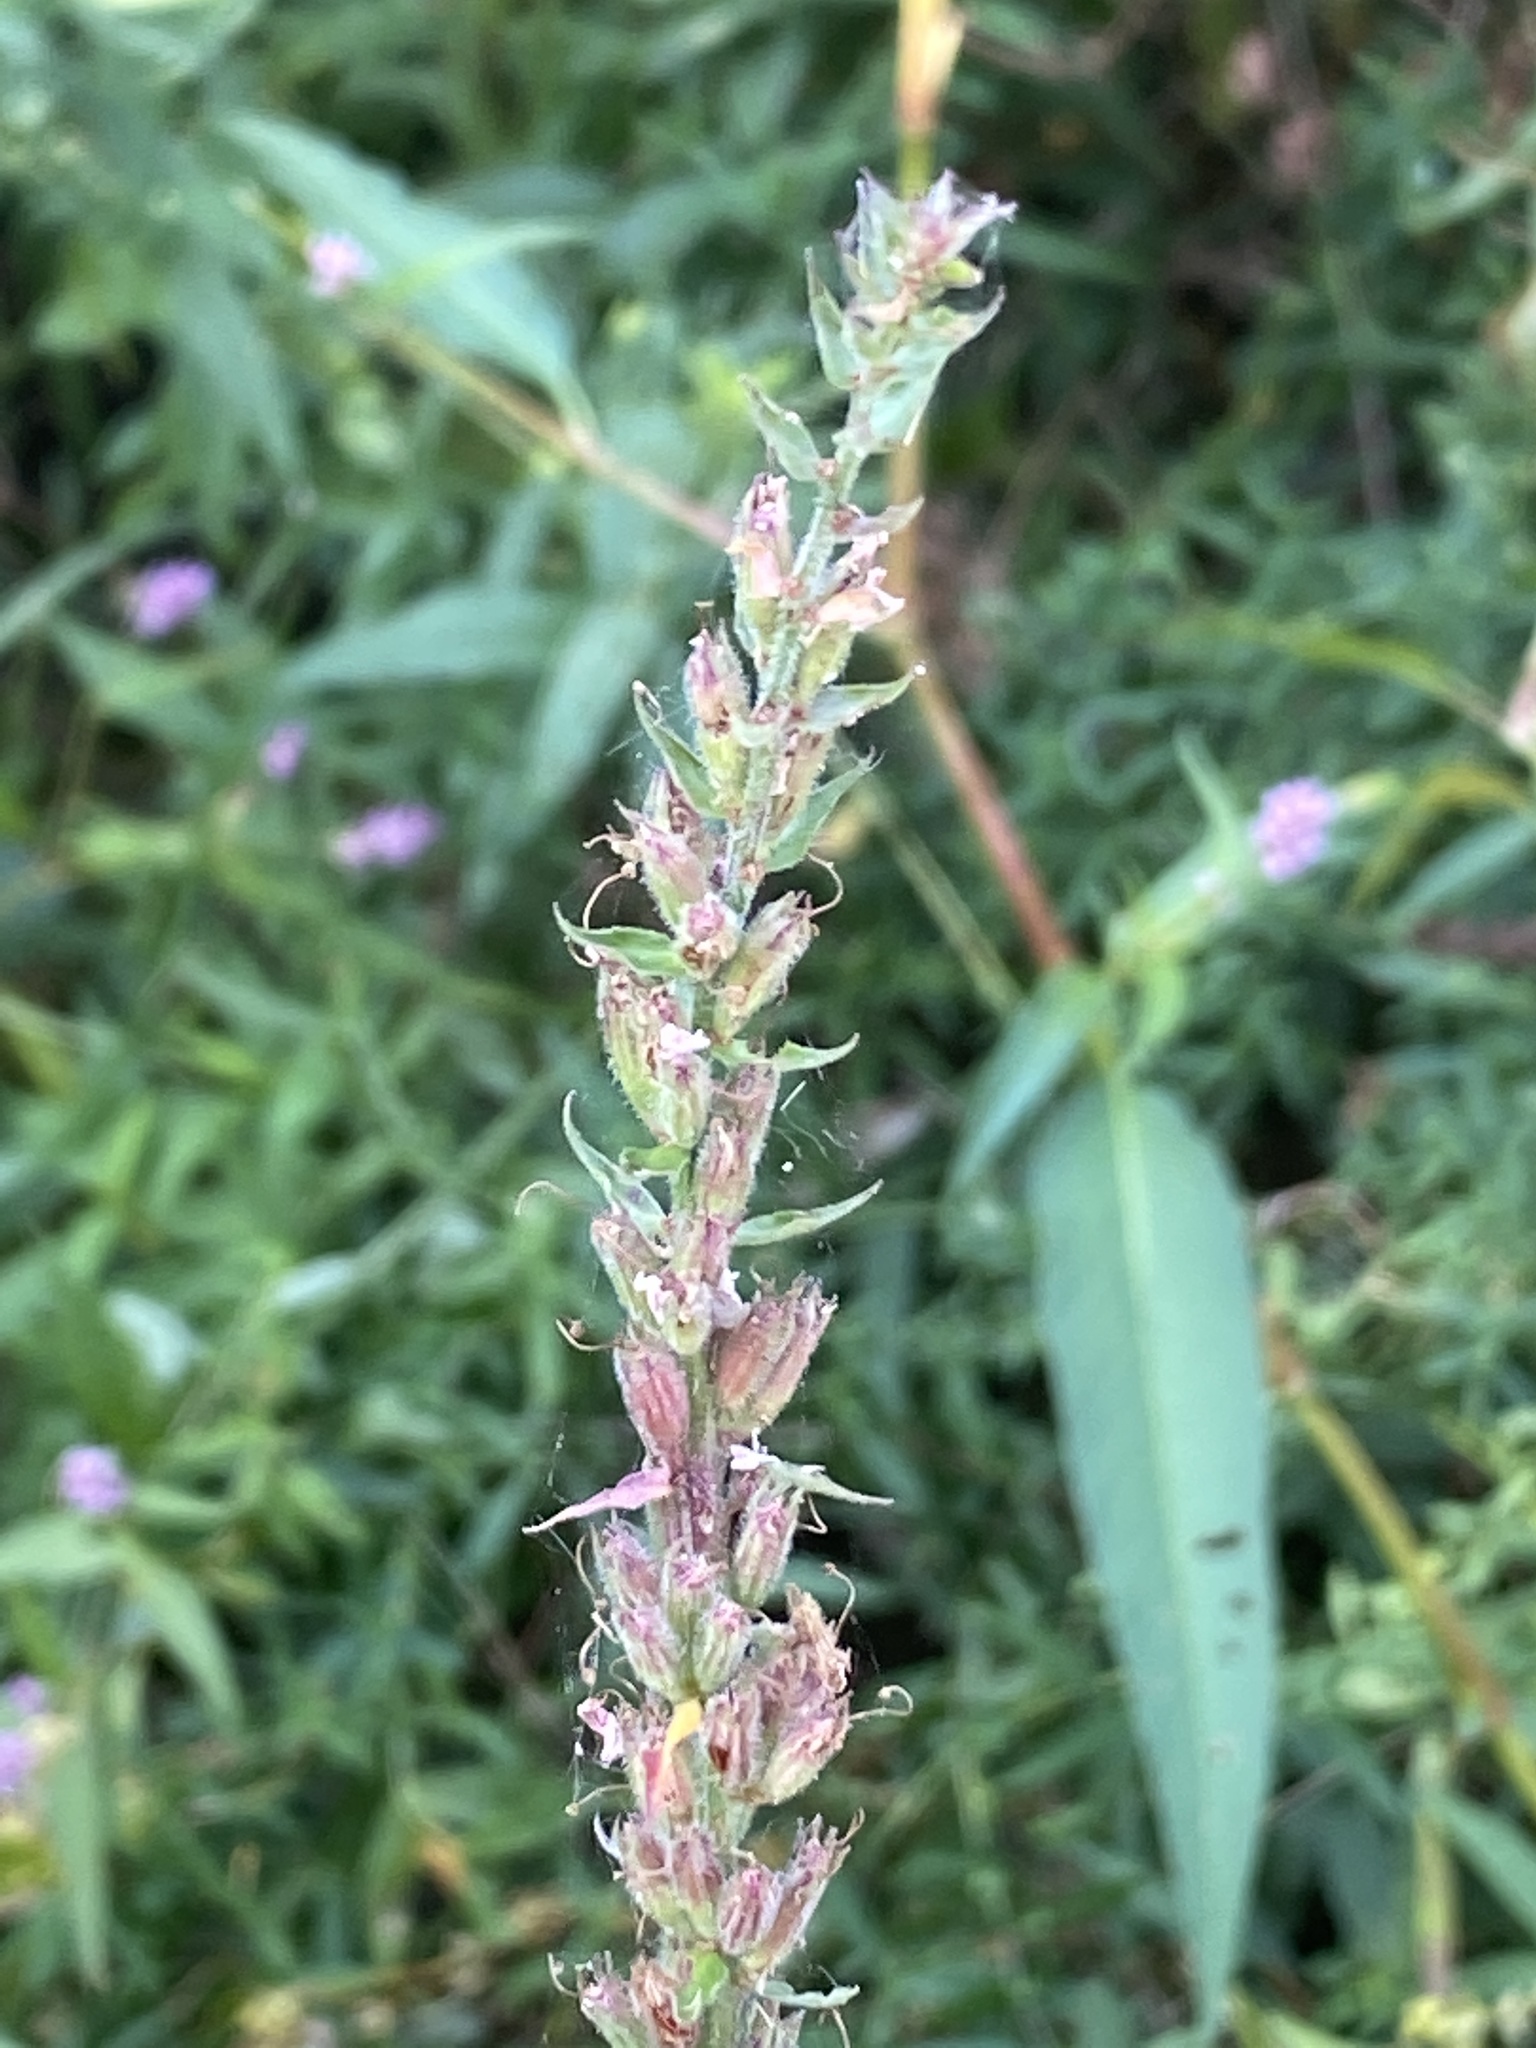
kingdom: Plantae
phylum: Tracheophyta
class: Magnoliopsida
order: Myrtales
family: Lythraceae
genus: Lythrum
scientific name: Lythrum salicaria
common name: Purple loosestrife
